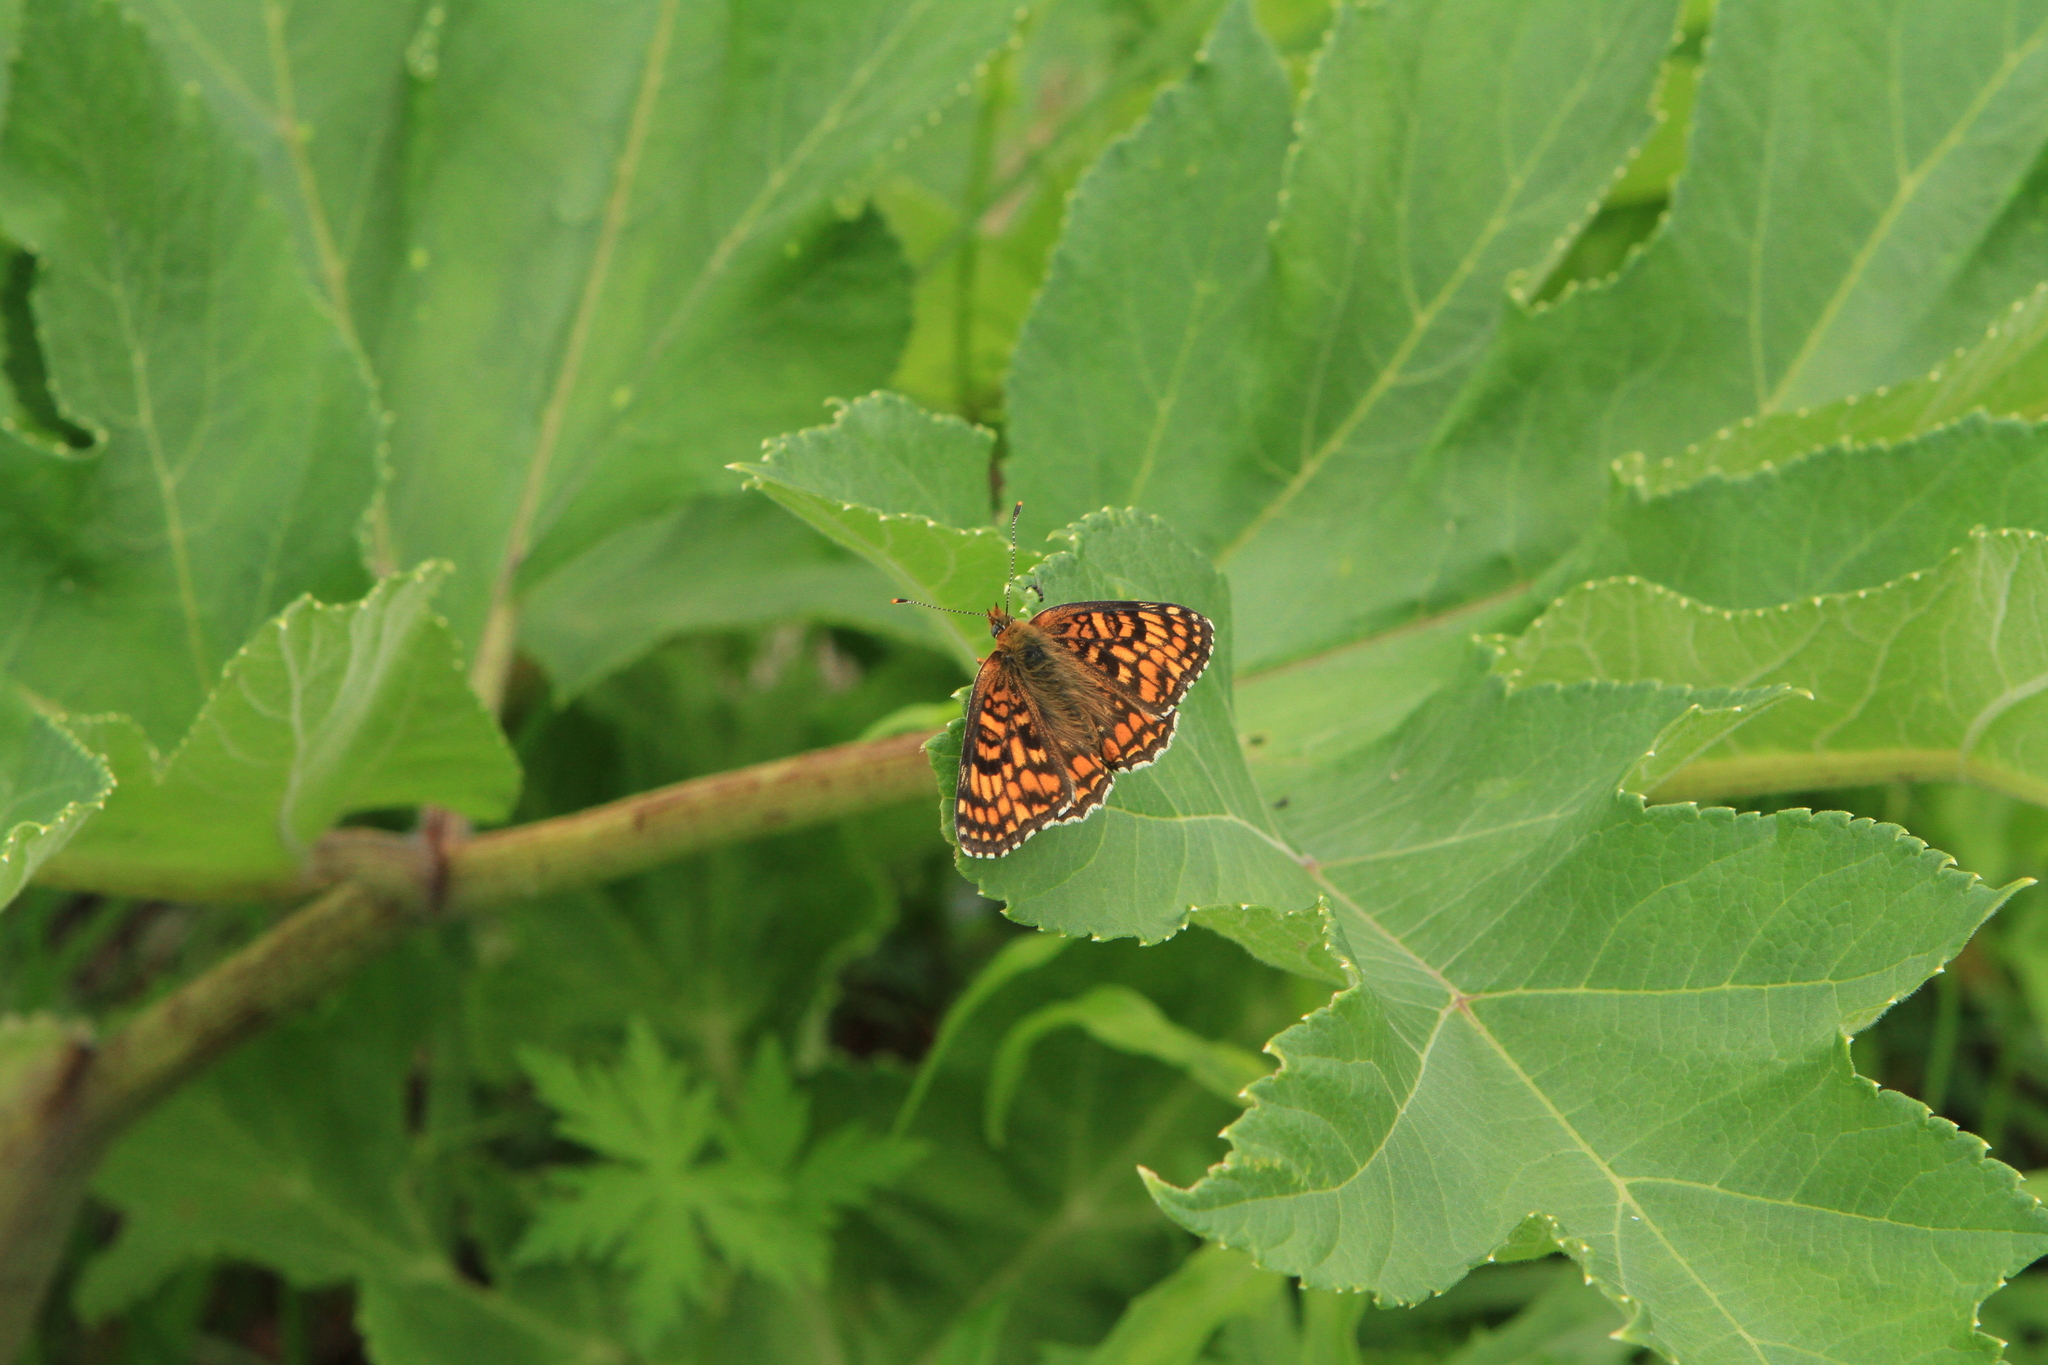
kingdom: Plantae
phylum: Tracheophyta
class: Magnoliopsida
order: Apiales
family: Apiaceae
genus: Heracleum
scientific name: Heracleum dissectum
